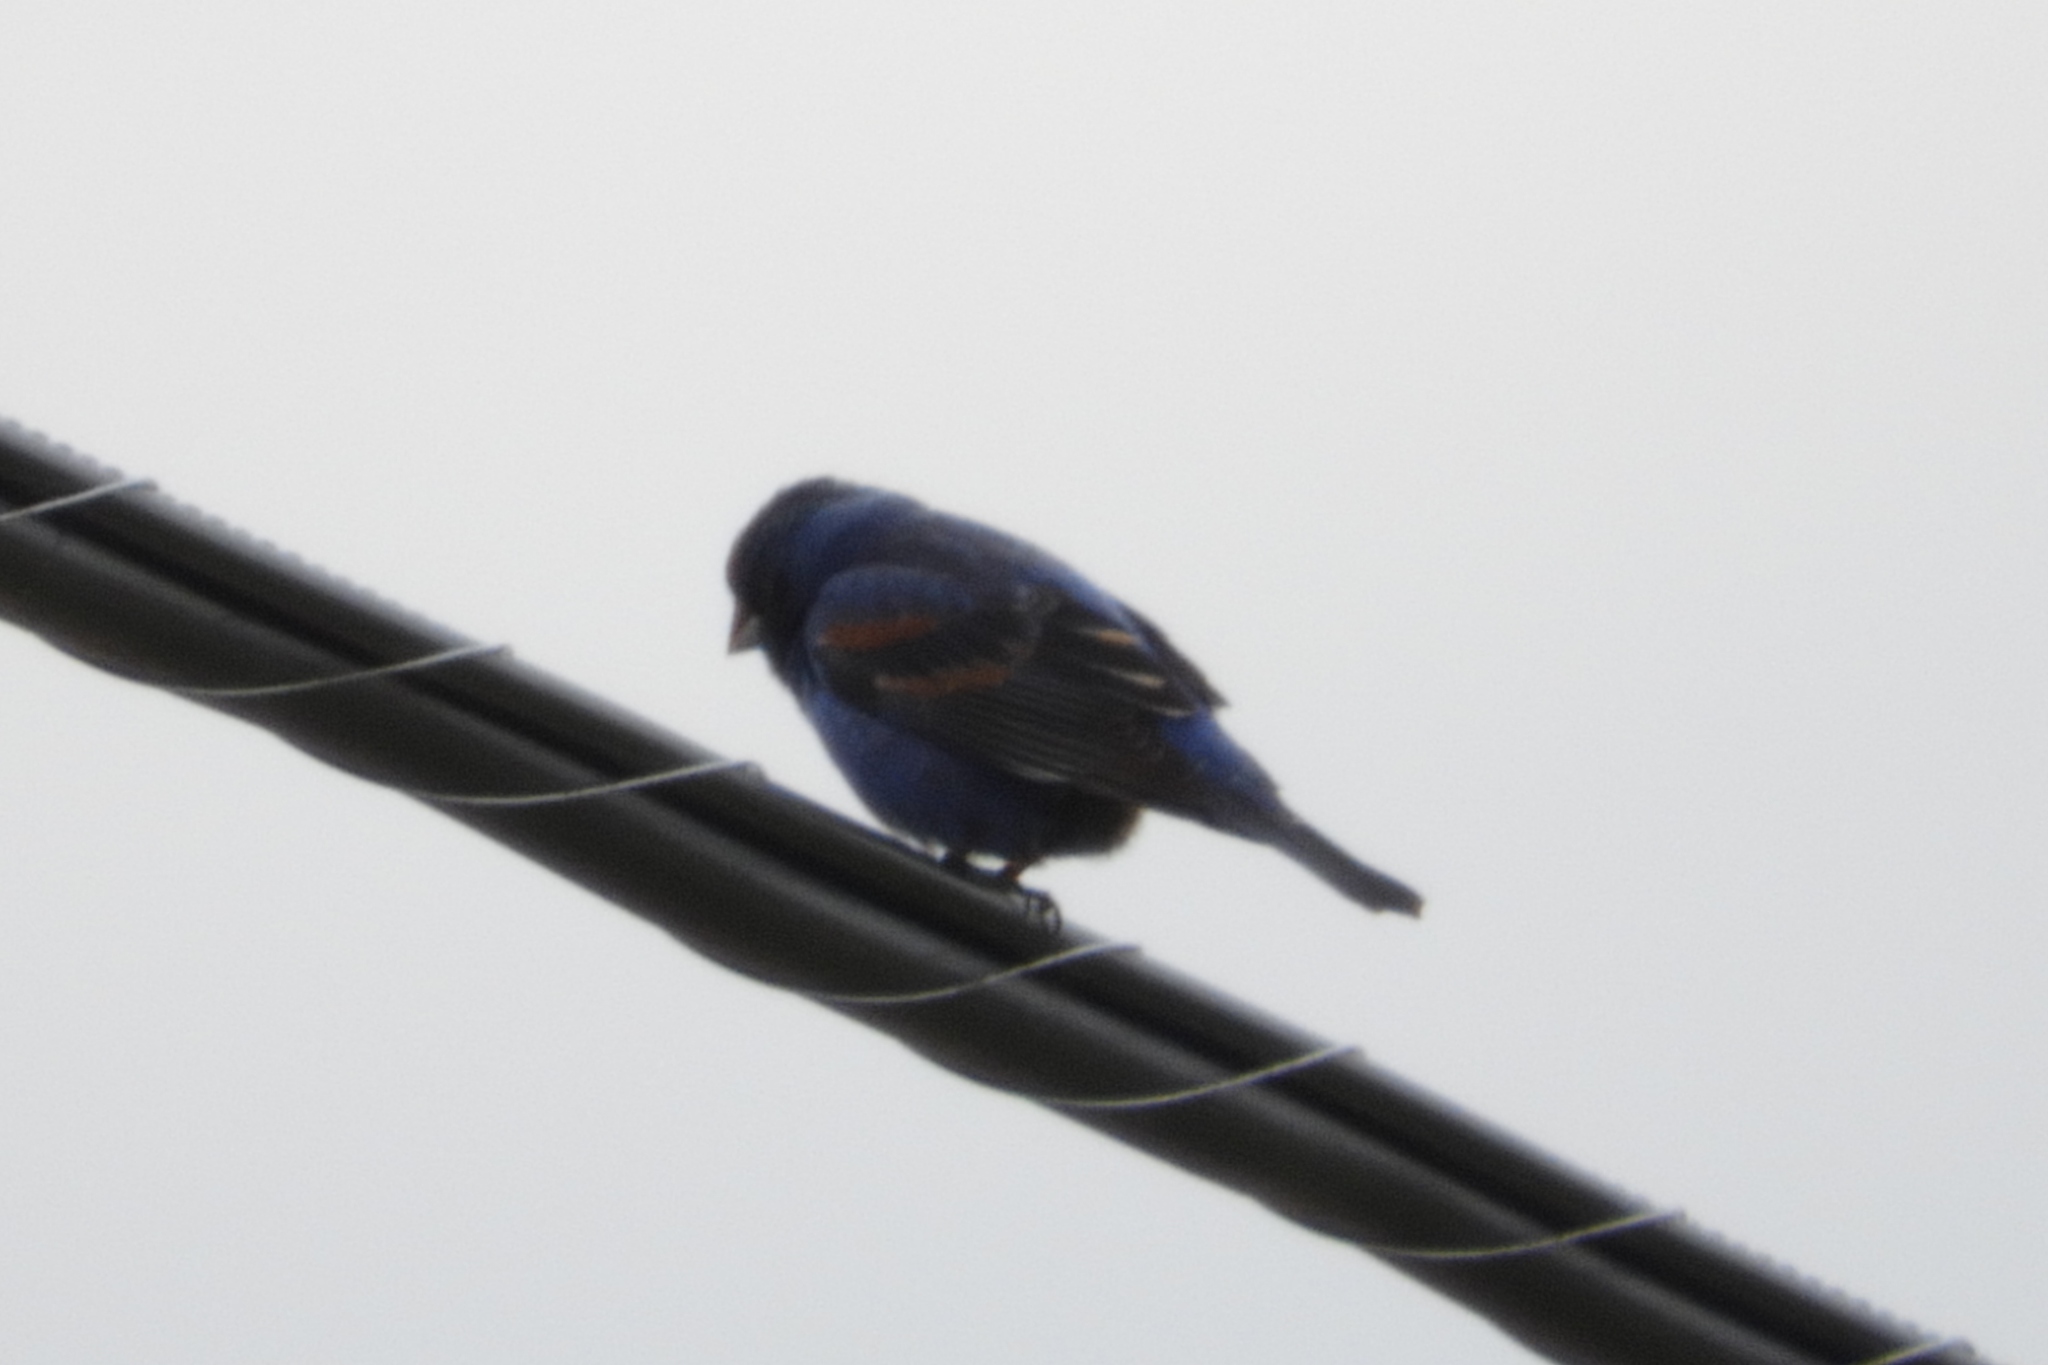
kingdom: Animalia
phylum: Chordata
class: Aves
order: Passeriformes
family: Cardinalidae
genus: Passerina
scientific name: Passerina caerulea
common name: Blue grosbeak
